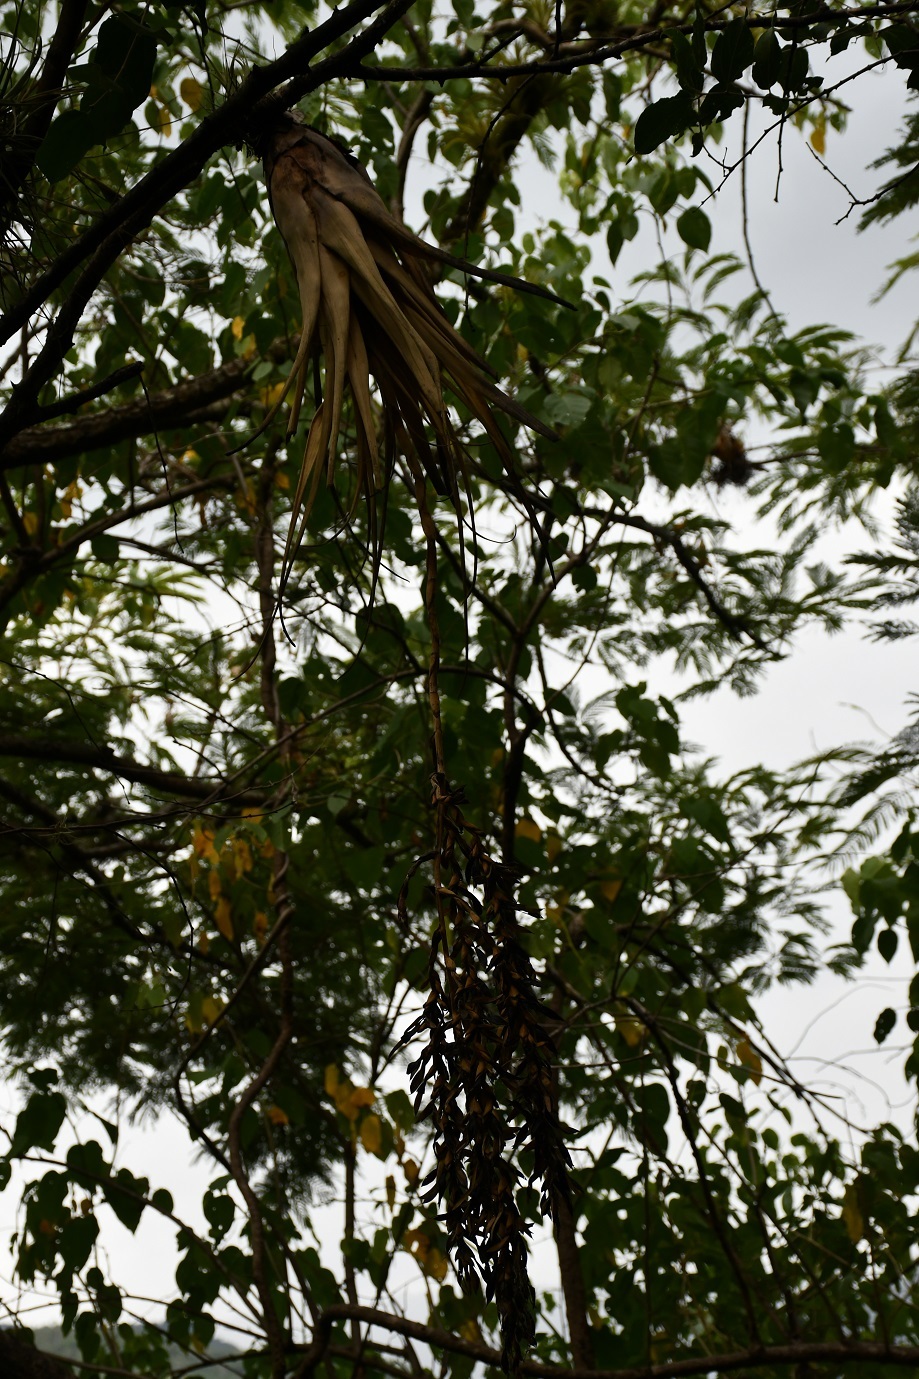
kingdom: Plantae
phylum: Tracheophyta
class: Liliopsida
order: Poales
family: Bromeliaceae
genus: Tillandsia
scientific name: Tillandsia makoyana
